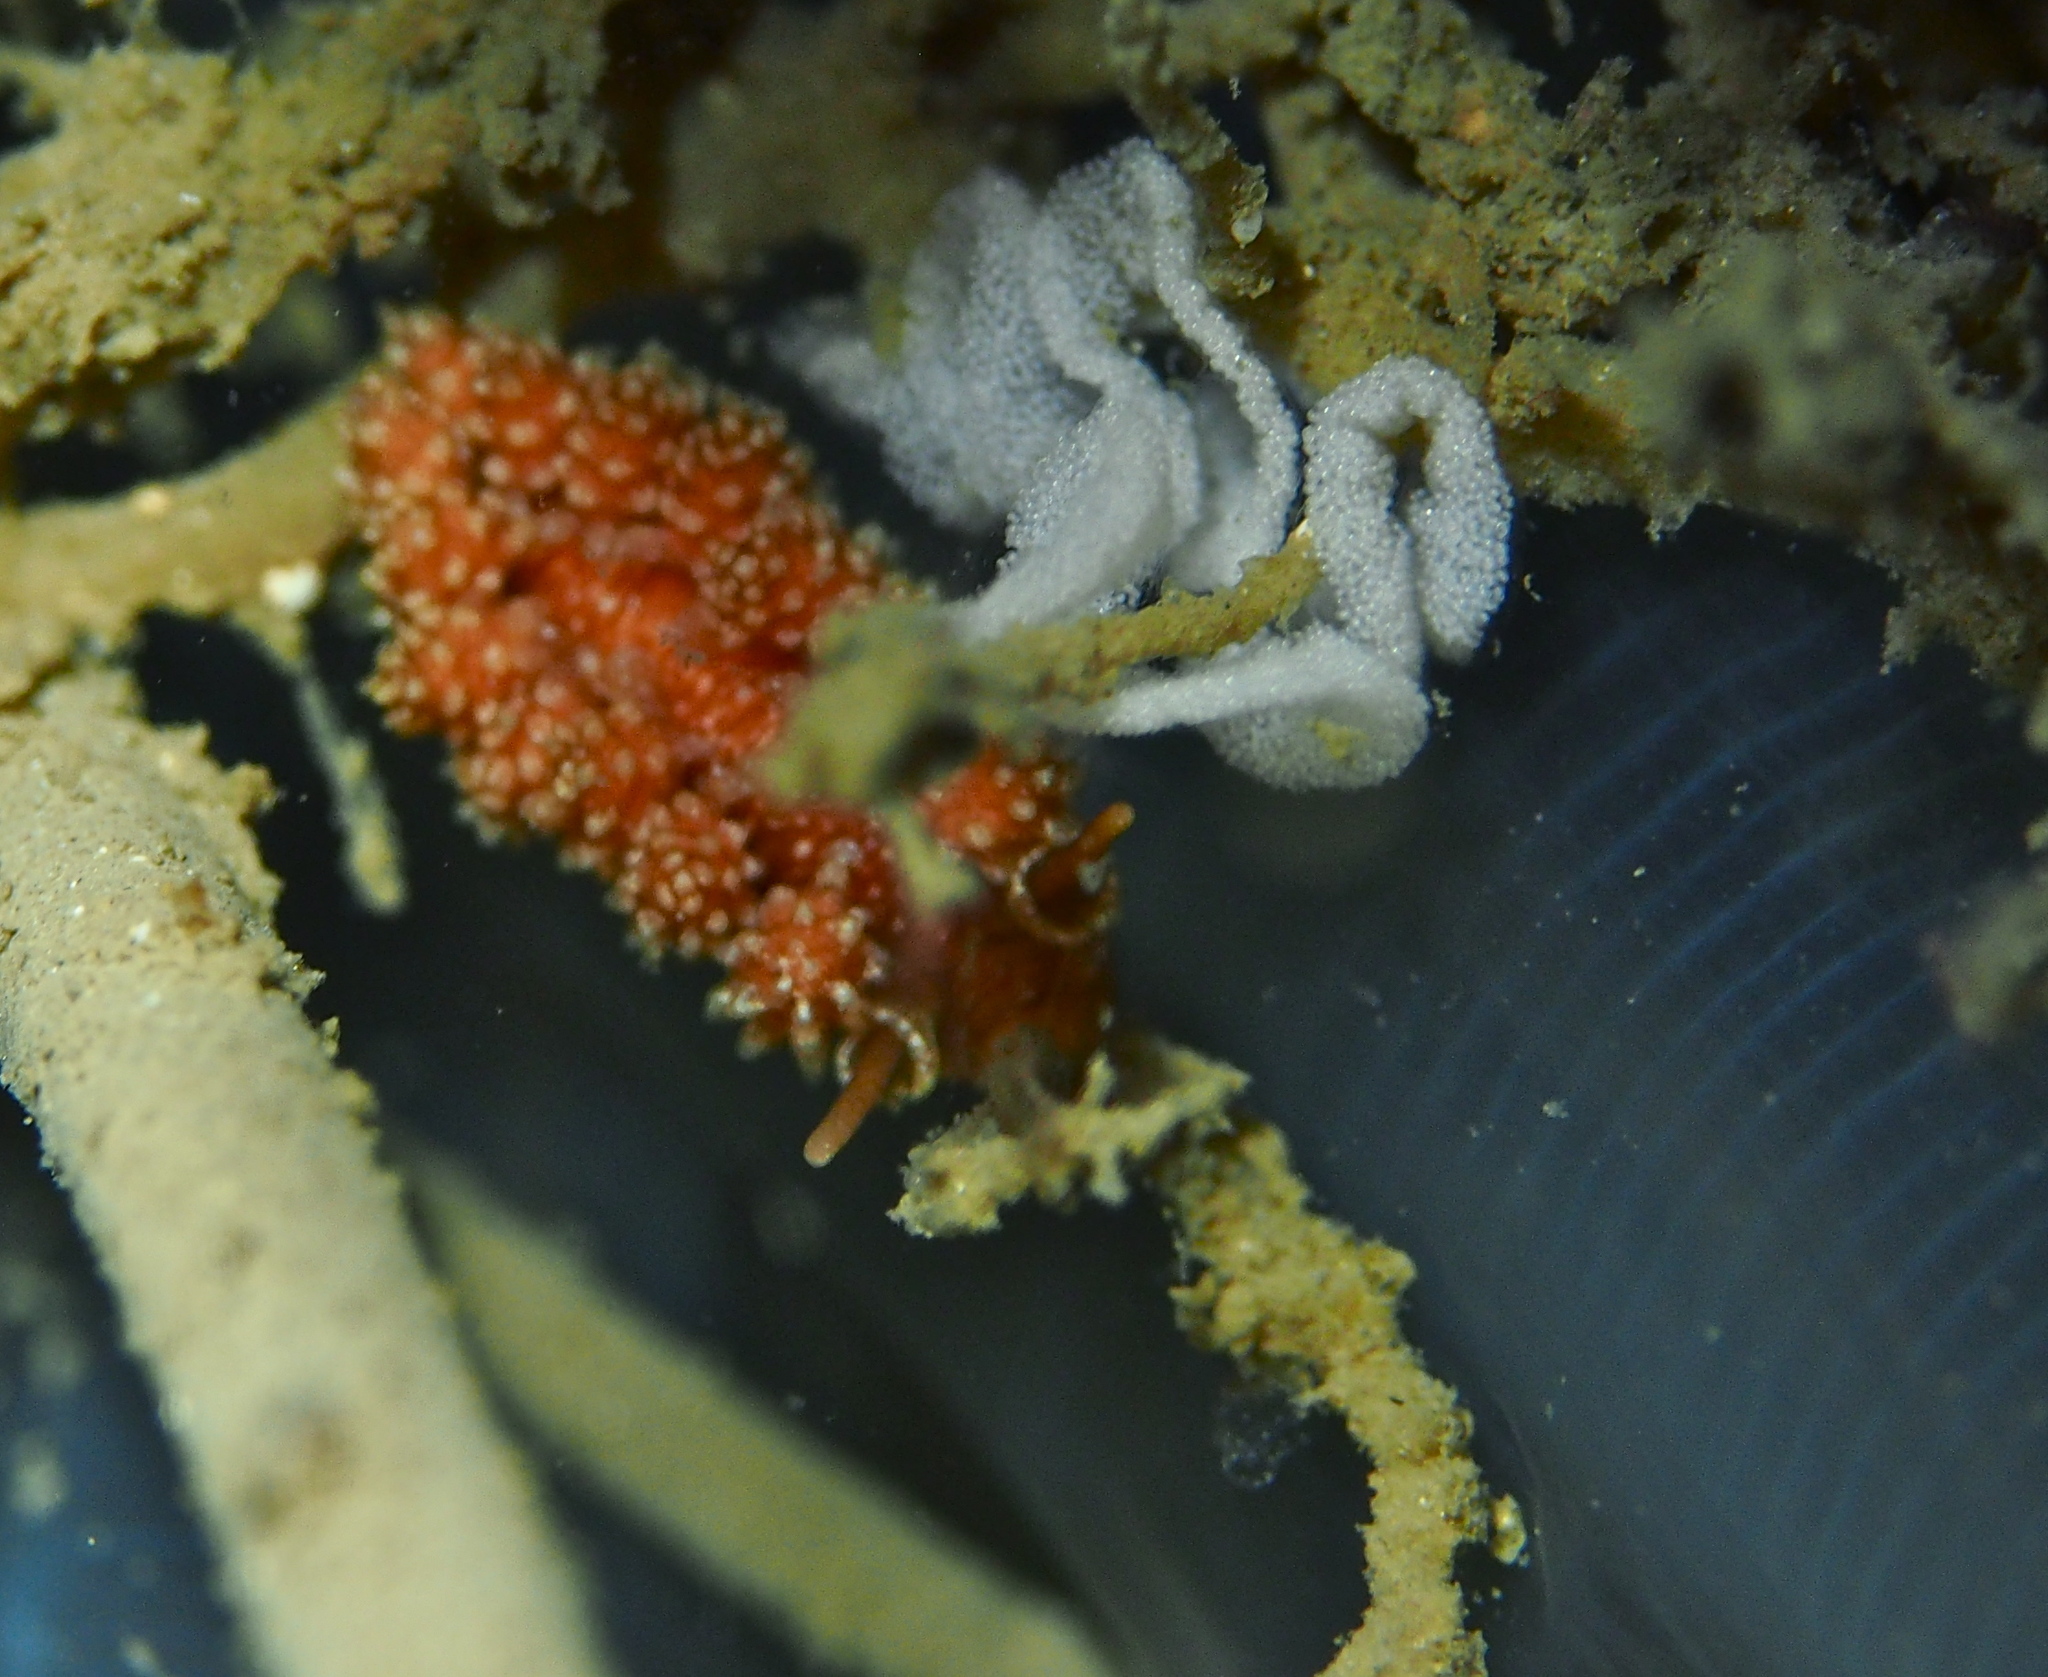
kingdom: Animalia
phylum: Mollusca
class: Gastropoda
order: Nudibranchia
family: Dotidae
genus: Doto
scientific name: Doto fragilis
